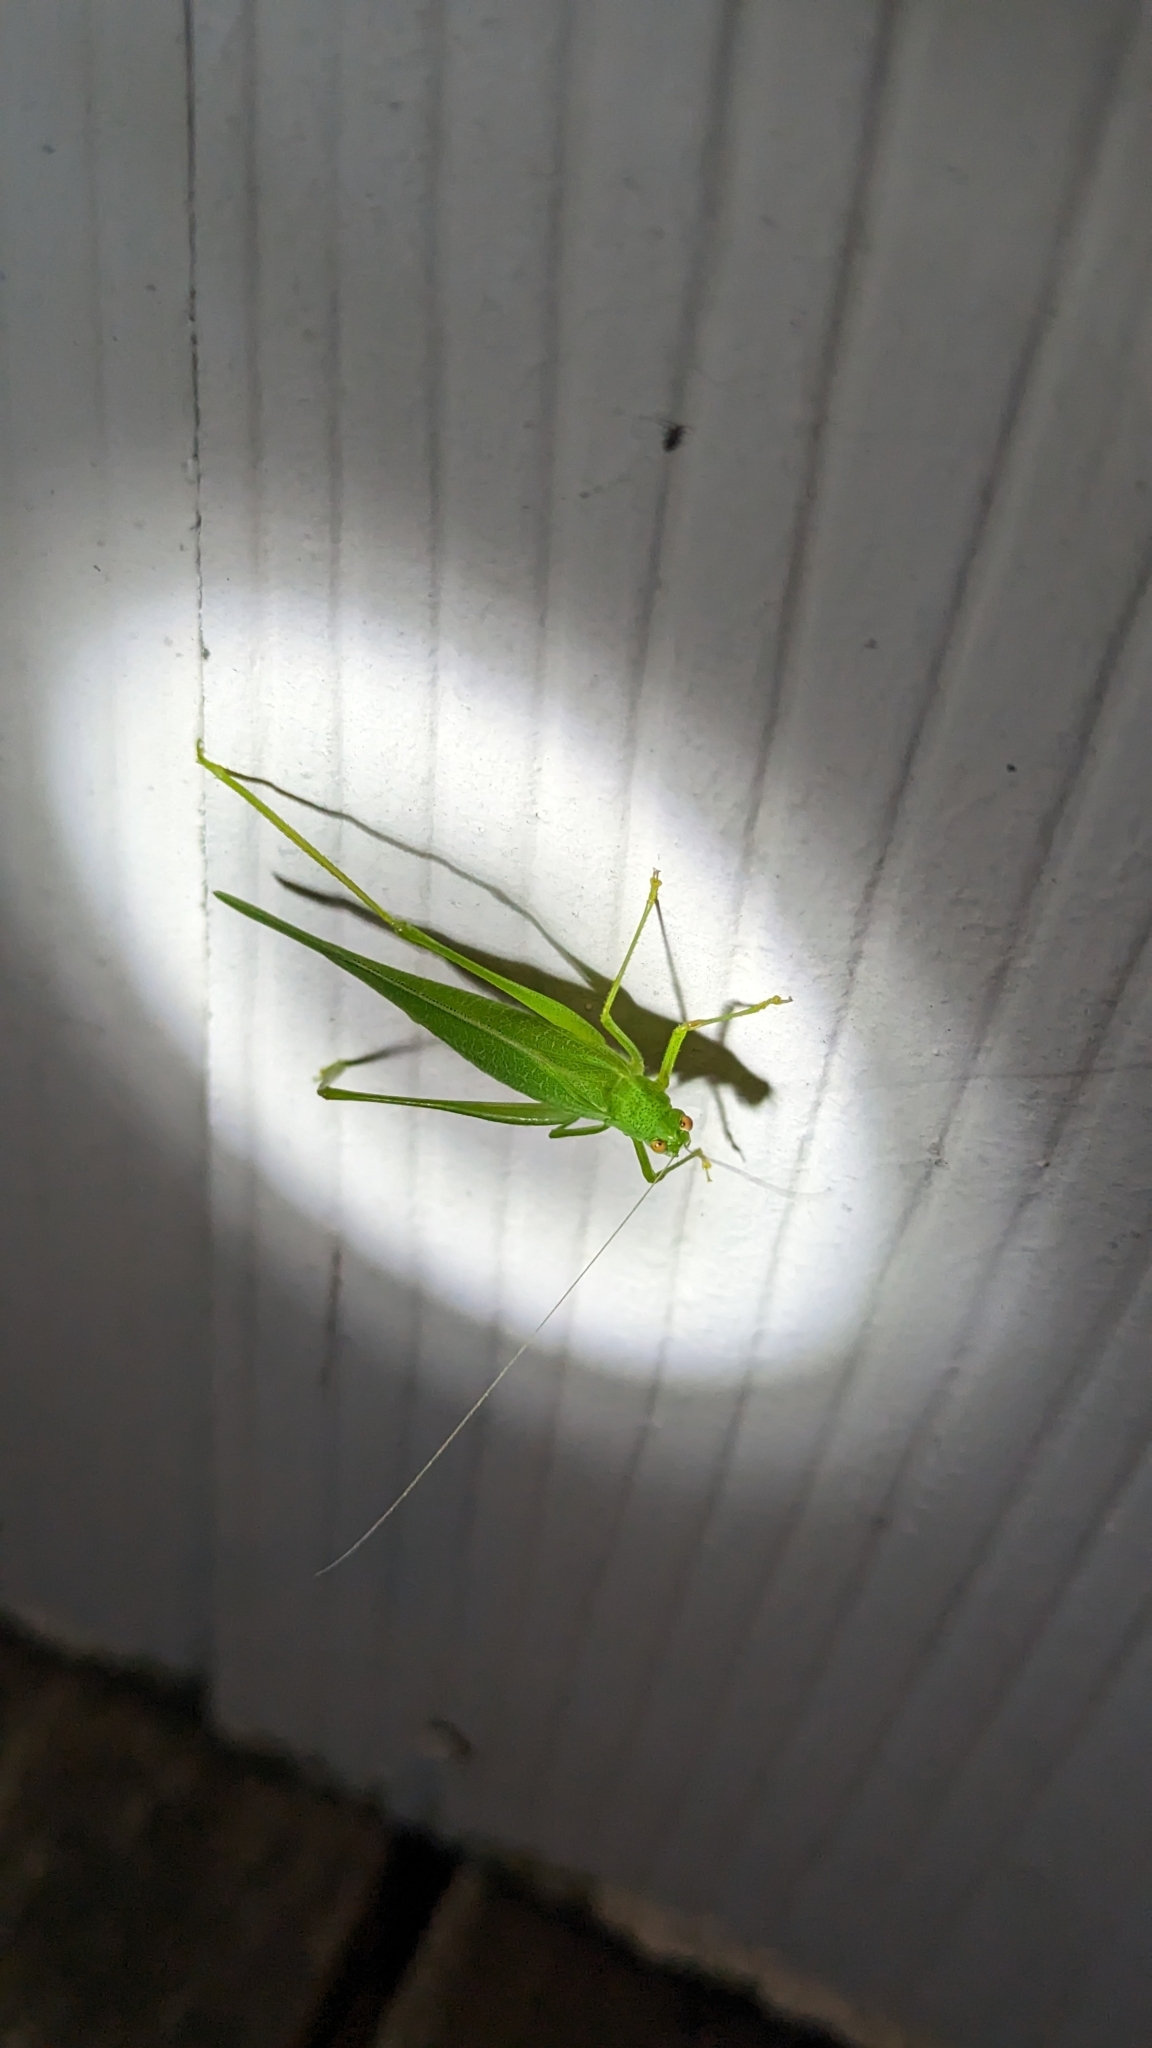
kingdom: Animalia
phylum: Arthropoda
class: Insecta
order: Orthoptera
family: Tettigoniidae
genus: Phaneroptera
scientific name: Phaneroptera nana
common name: Southern sickle bush-cricket
